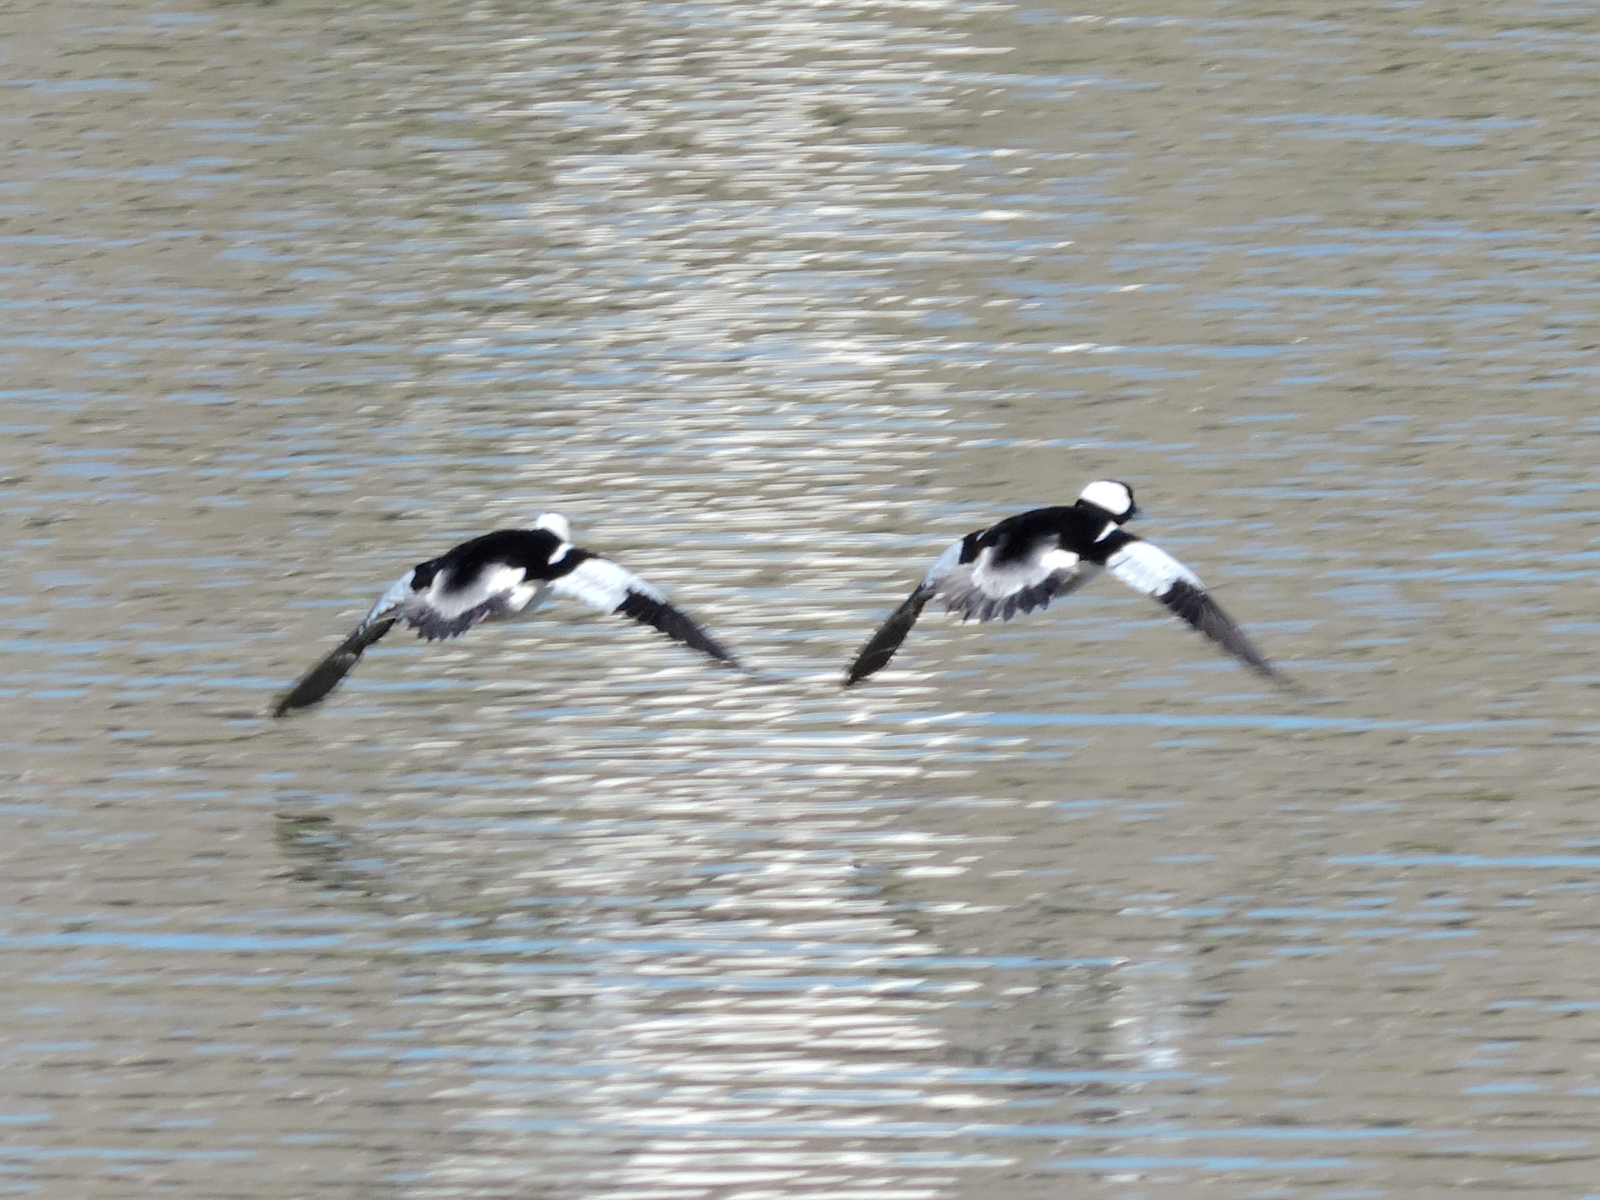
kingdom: Animalia
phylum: Chordata
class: Aves
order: Anseriformes
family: Anatidae
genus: Bucephala
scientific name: Bucephala albeola
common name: Bufflehead
